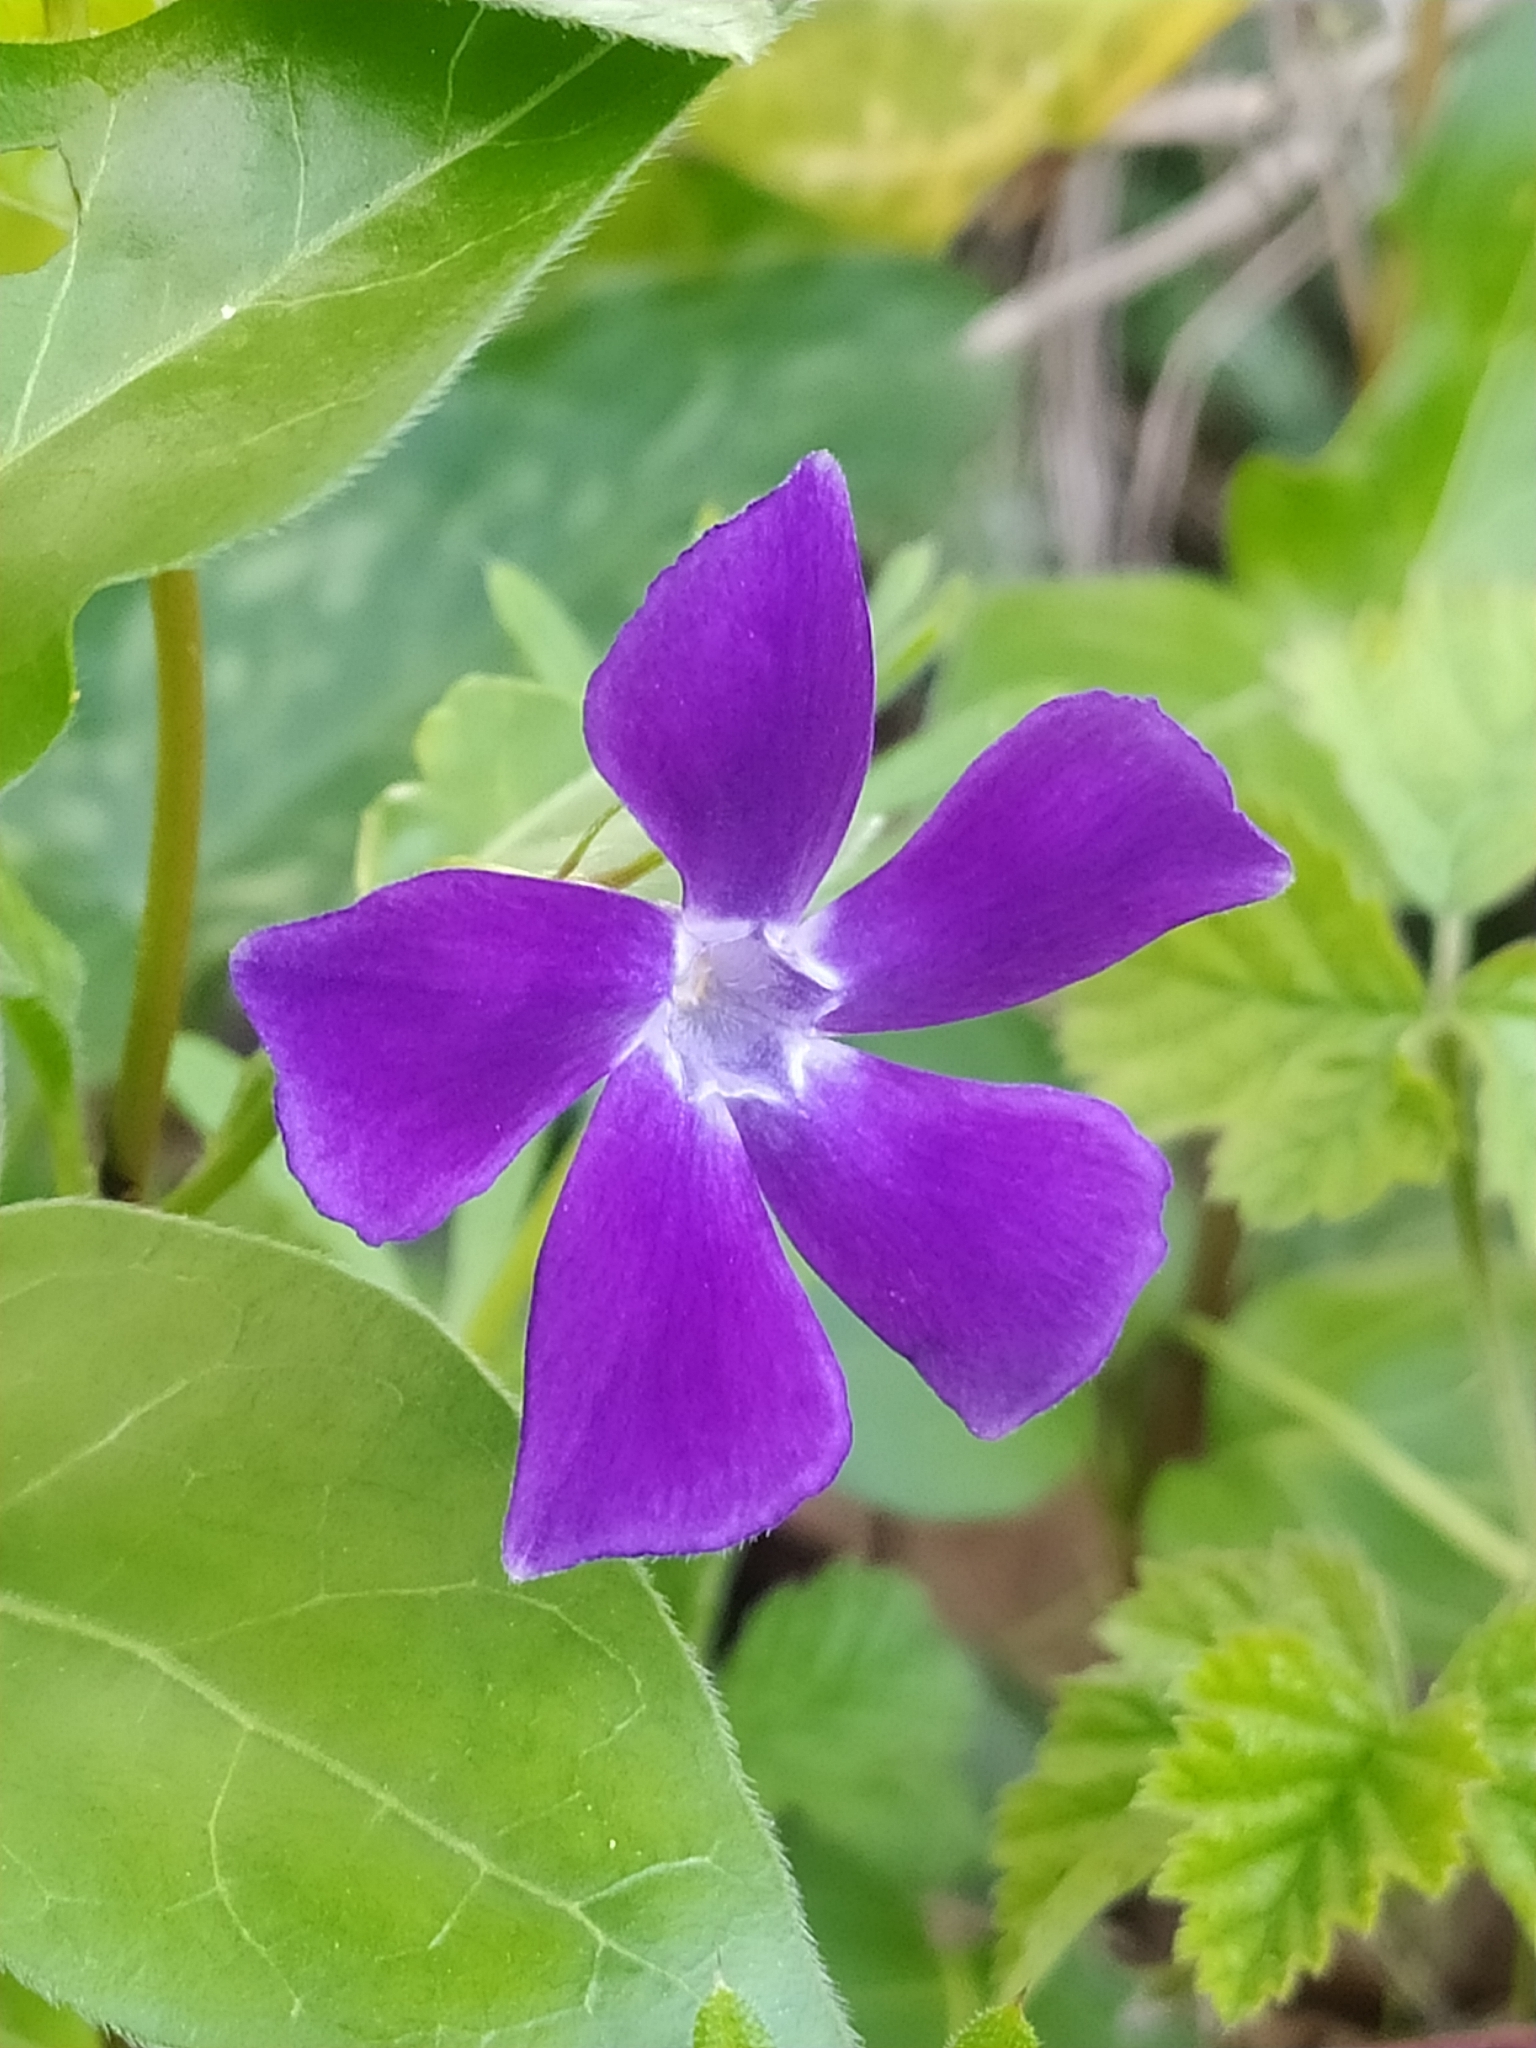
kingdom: Plantae
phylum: Tracheophyta
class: Magnoliopsida
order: Gentianales
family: Apocynaceae
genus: Vinca
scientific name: Vinca major
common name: Greater periwinkle
